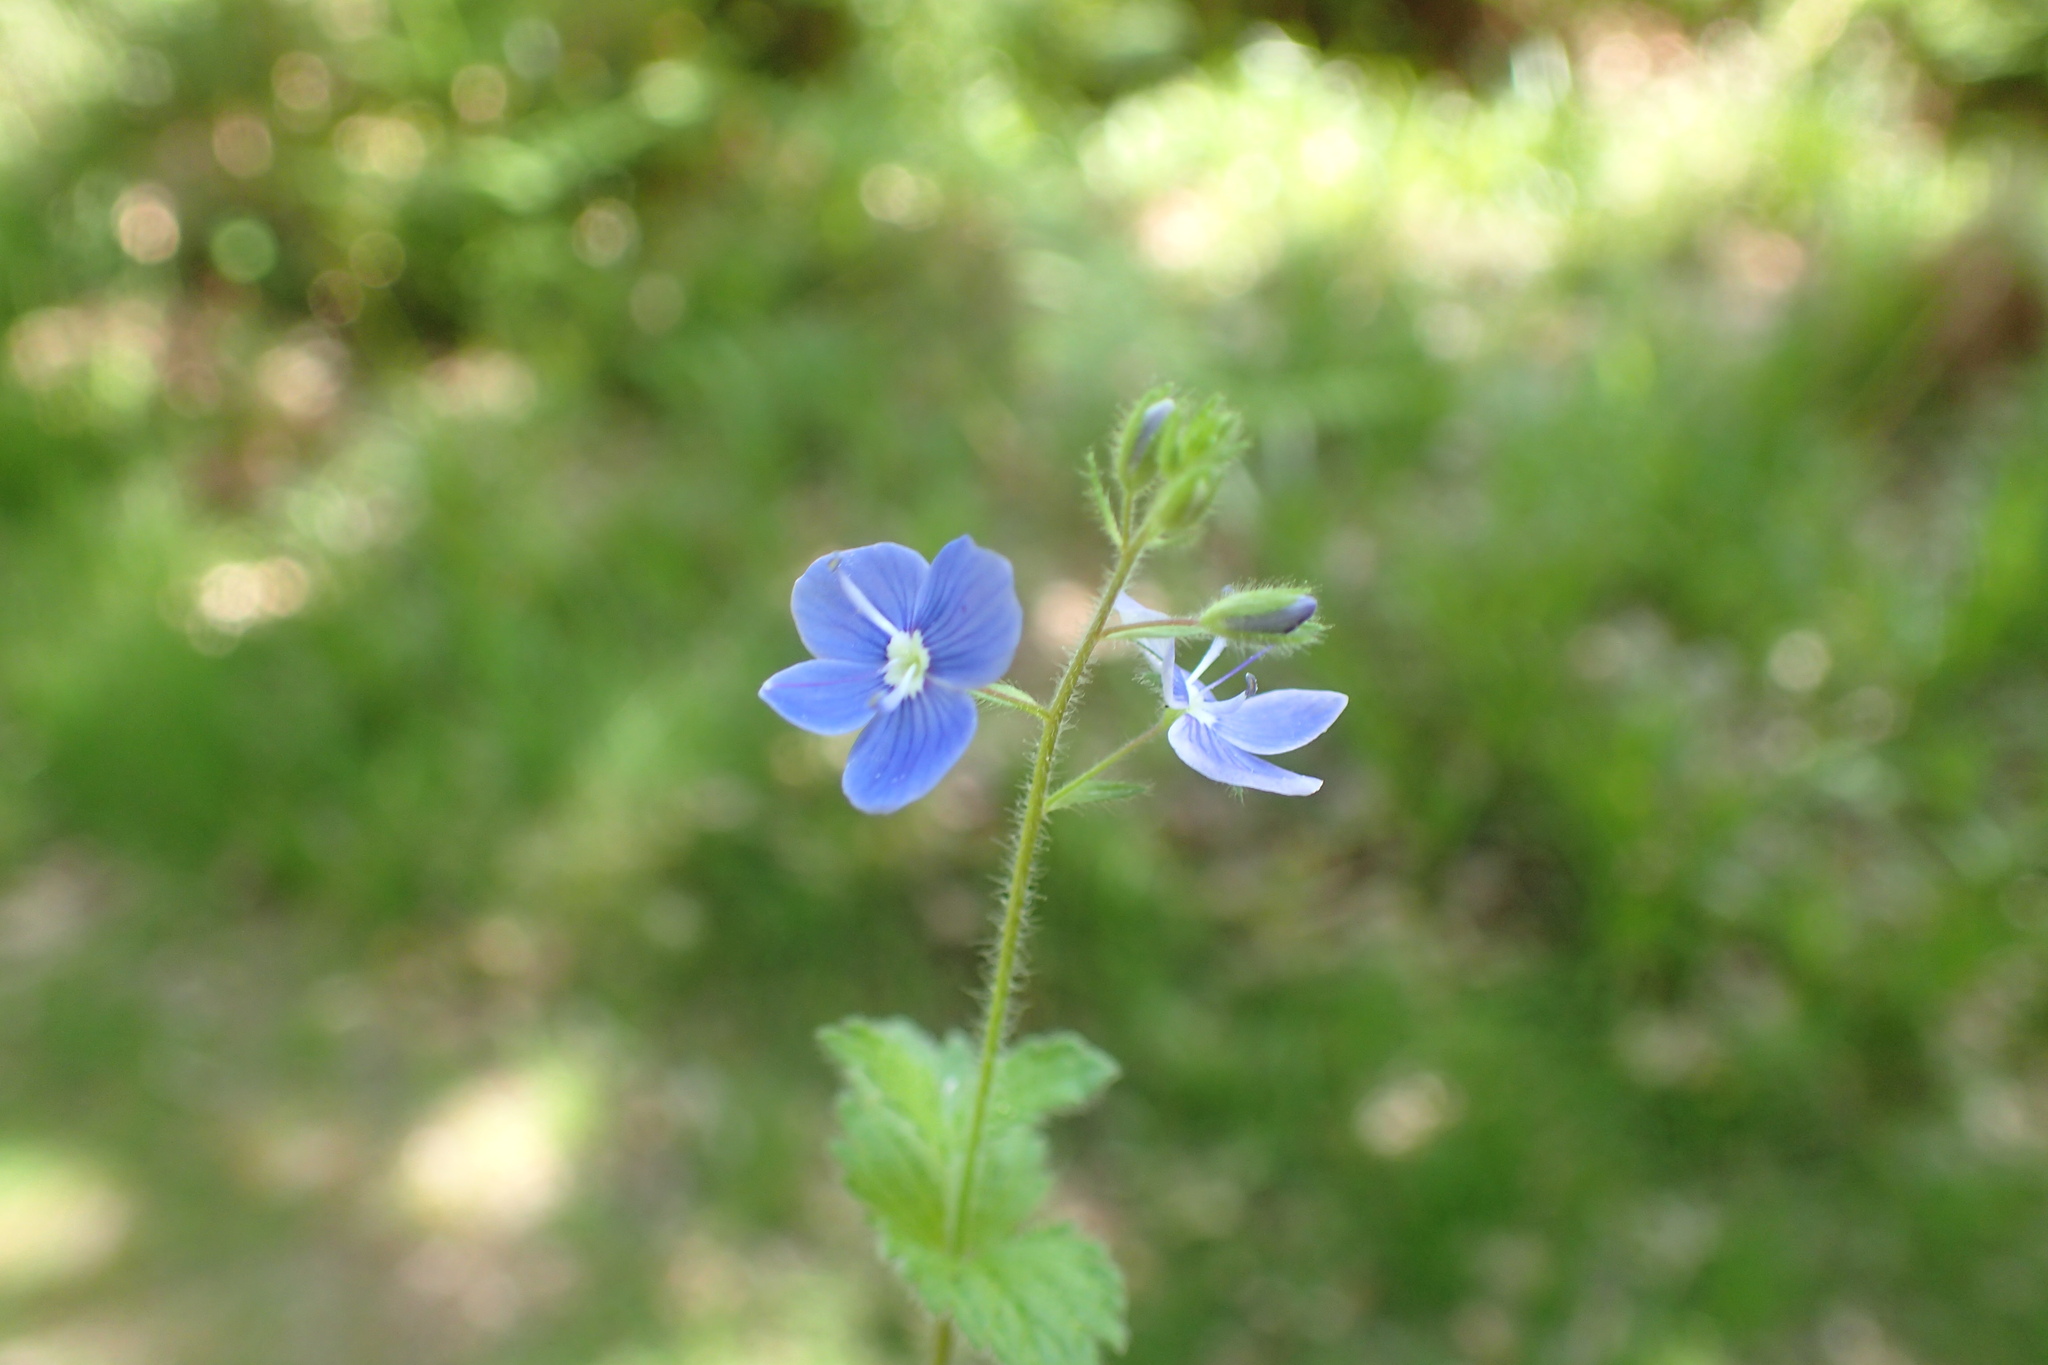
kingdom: Plantae
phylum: Tracheophyta
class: Magnoliopsida
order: Lamiales
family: Plantaginaceae
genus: Veronica
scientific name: Veronica chamaedrys
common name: Germander speedwell
